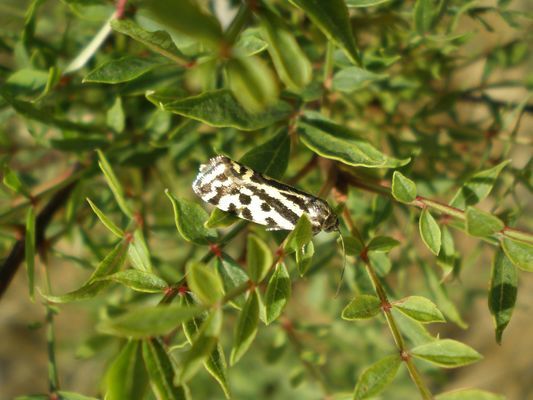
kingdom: Animalia
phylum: Arthropoda
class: Insecta
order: Lepidoptera
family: Noctuidae
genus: Acontia
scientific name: Acontia trabealis
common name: Spotted sulphur
